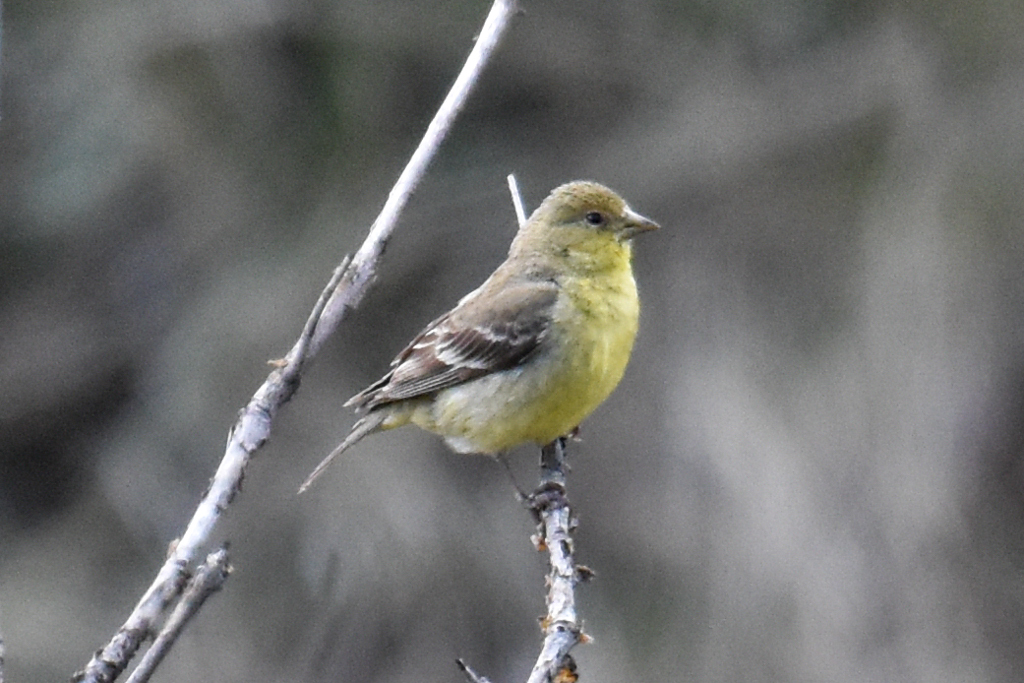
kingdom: Animalia
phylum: Chordata
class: Aves
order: Passeriformes
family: Fringillidae
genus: Spinus
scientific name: Spinus psaltria
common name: Lesser goldfinch
